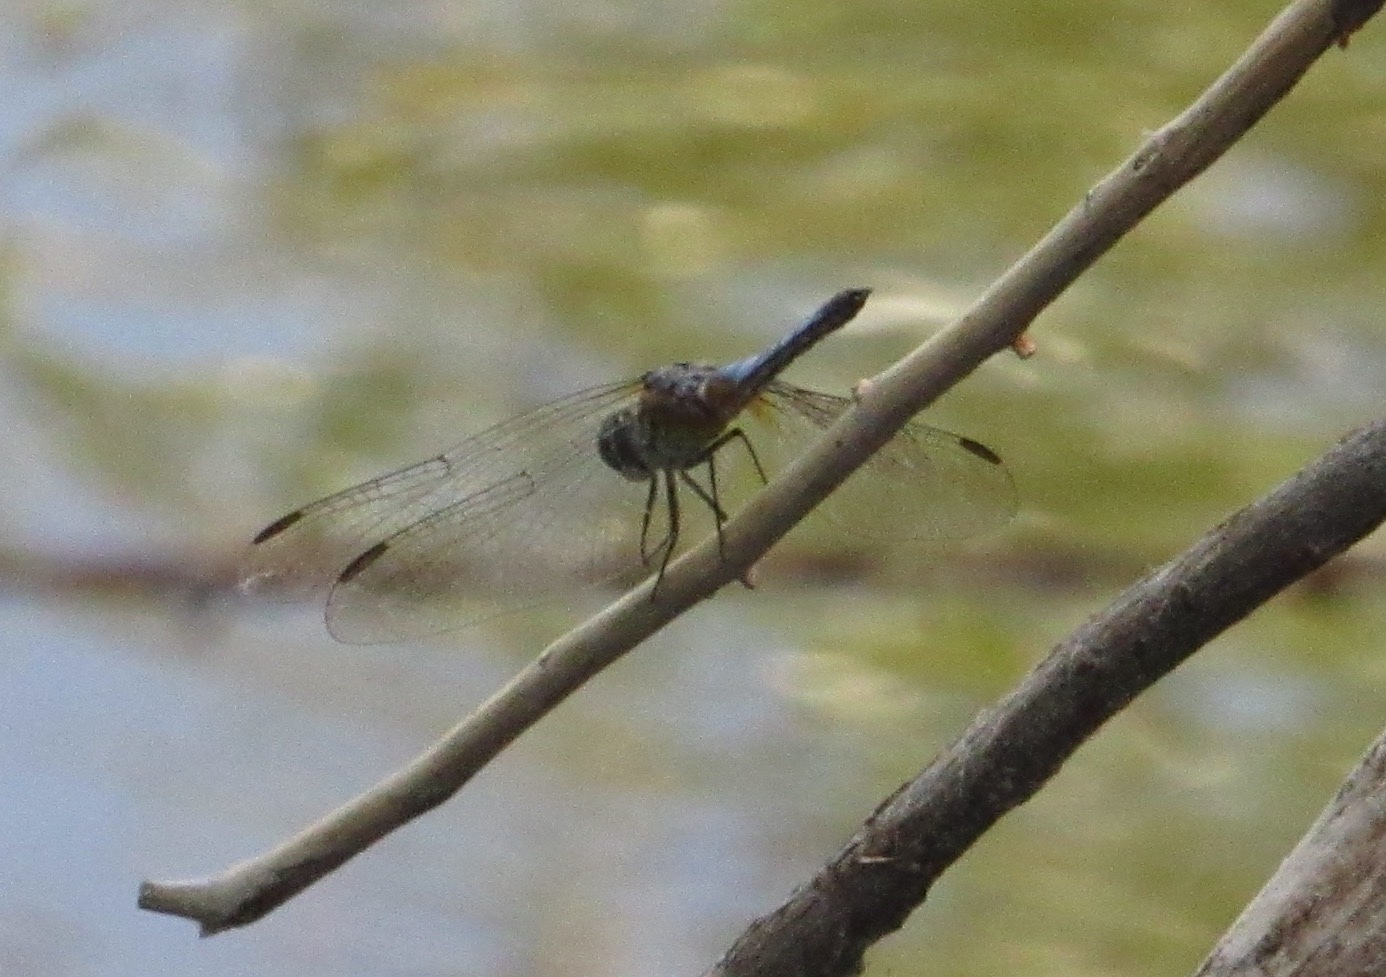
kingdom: Animalia
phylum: Arthropoda
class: Insecta
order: Odonata
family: Libellulidae
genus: Pachydiplax
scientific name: Pachydiplax longipennis
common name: Blue dasher
